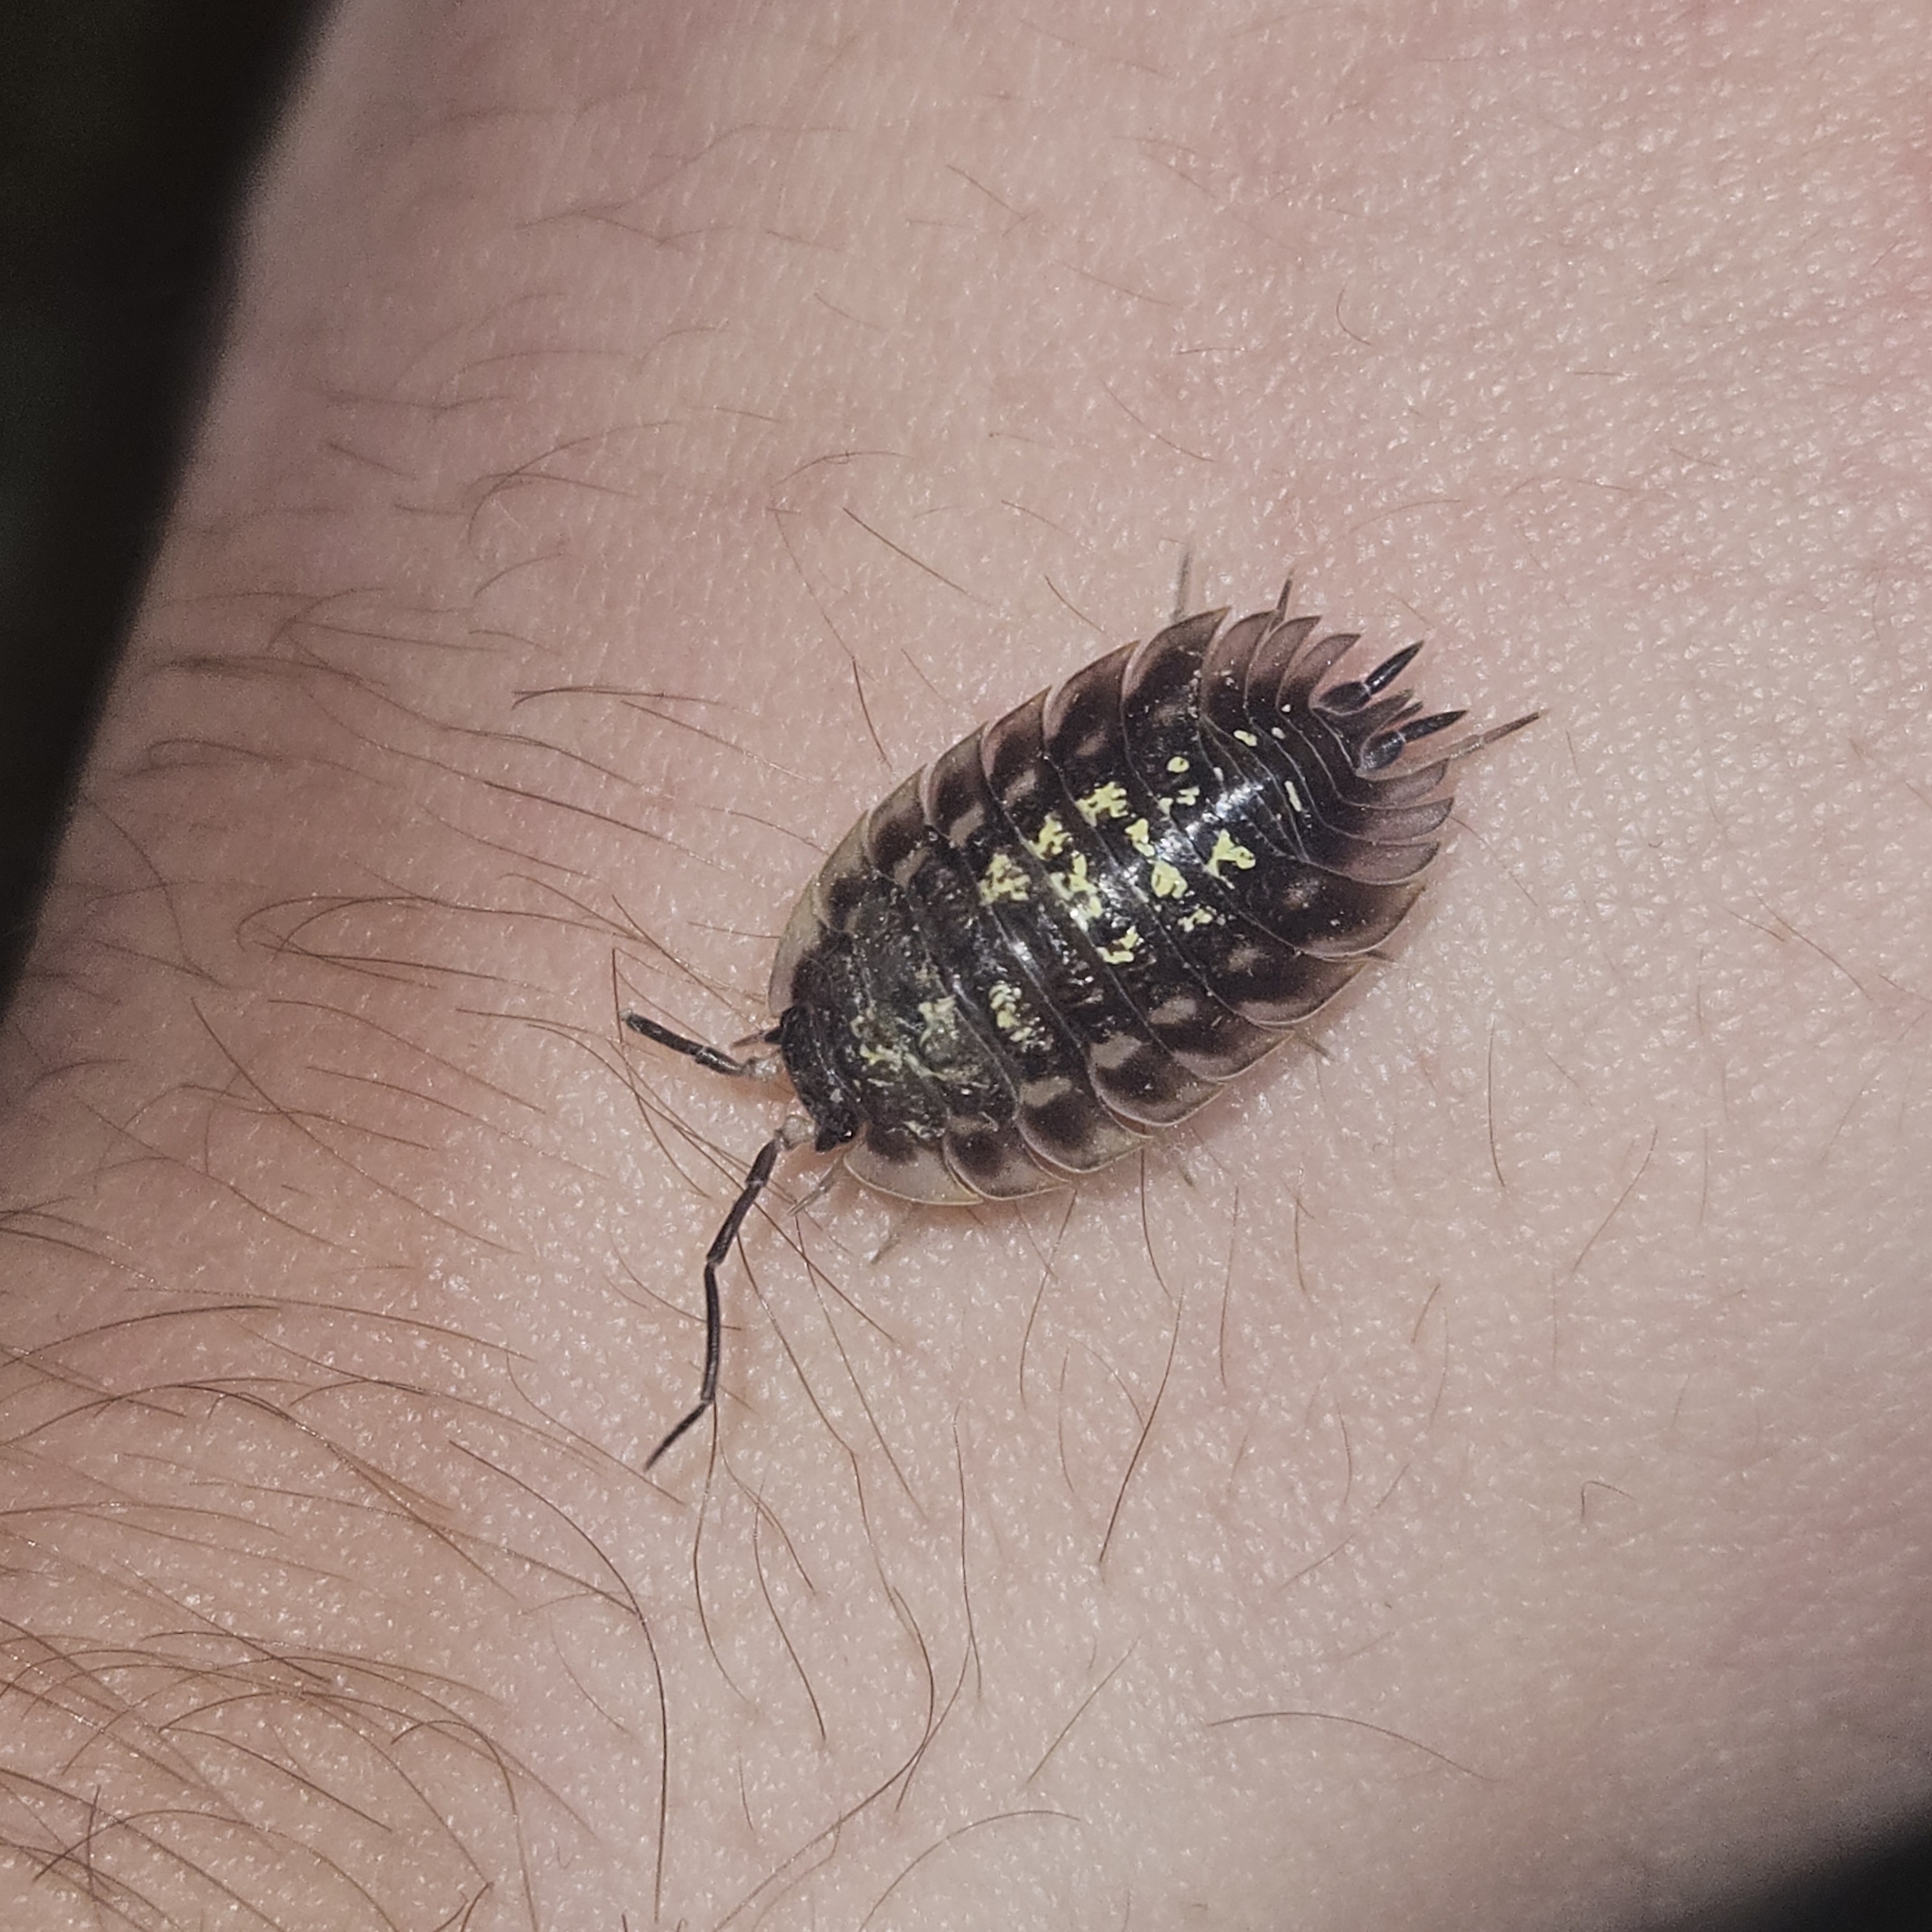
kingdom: Animalia
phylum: Arthropoda
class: Malacostraca
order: Isopoda
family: Oniscidae
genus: Oniscus
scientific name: Oniscus asellus
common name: Common shiny woodlouse
